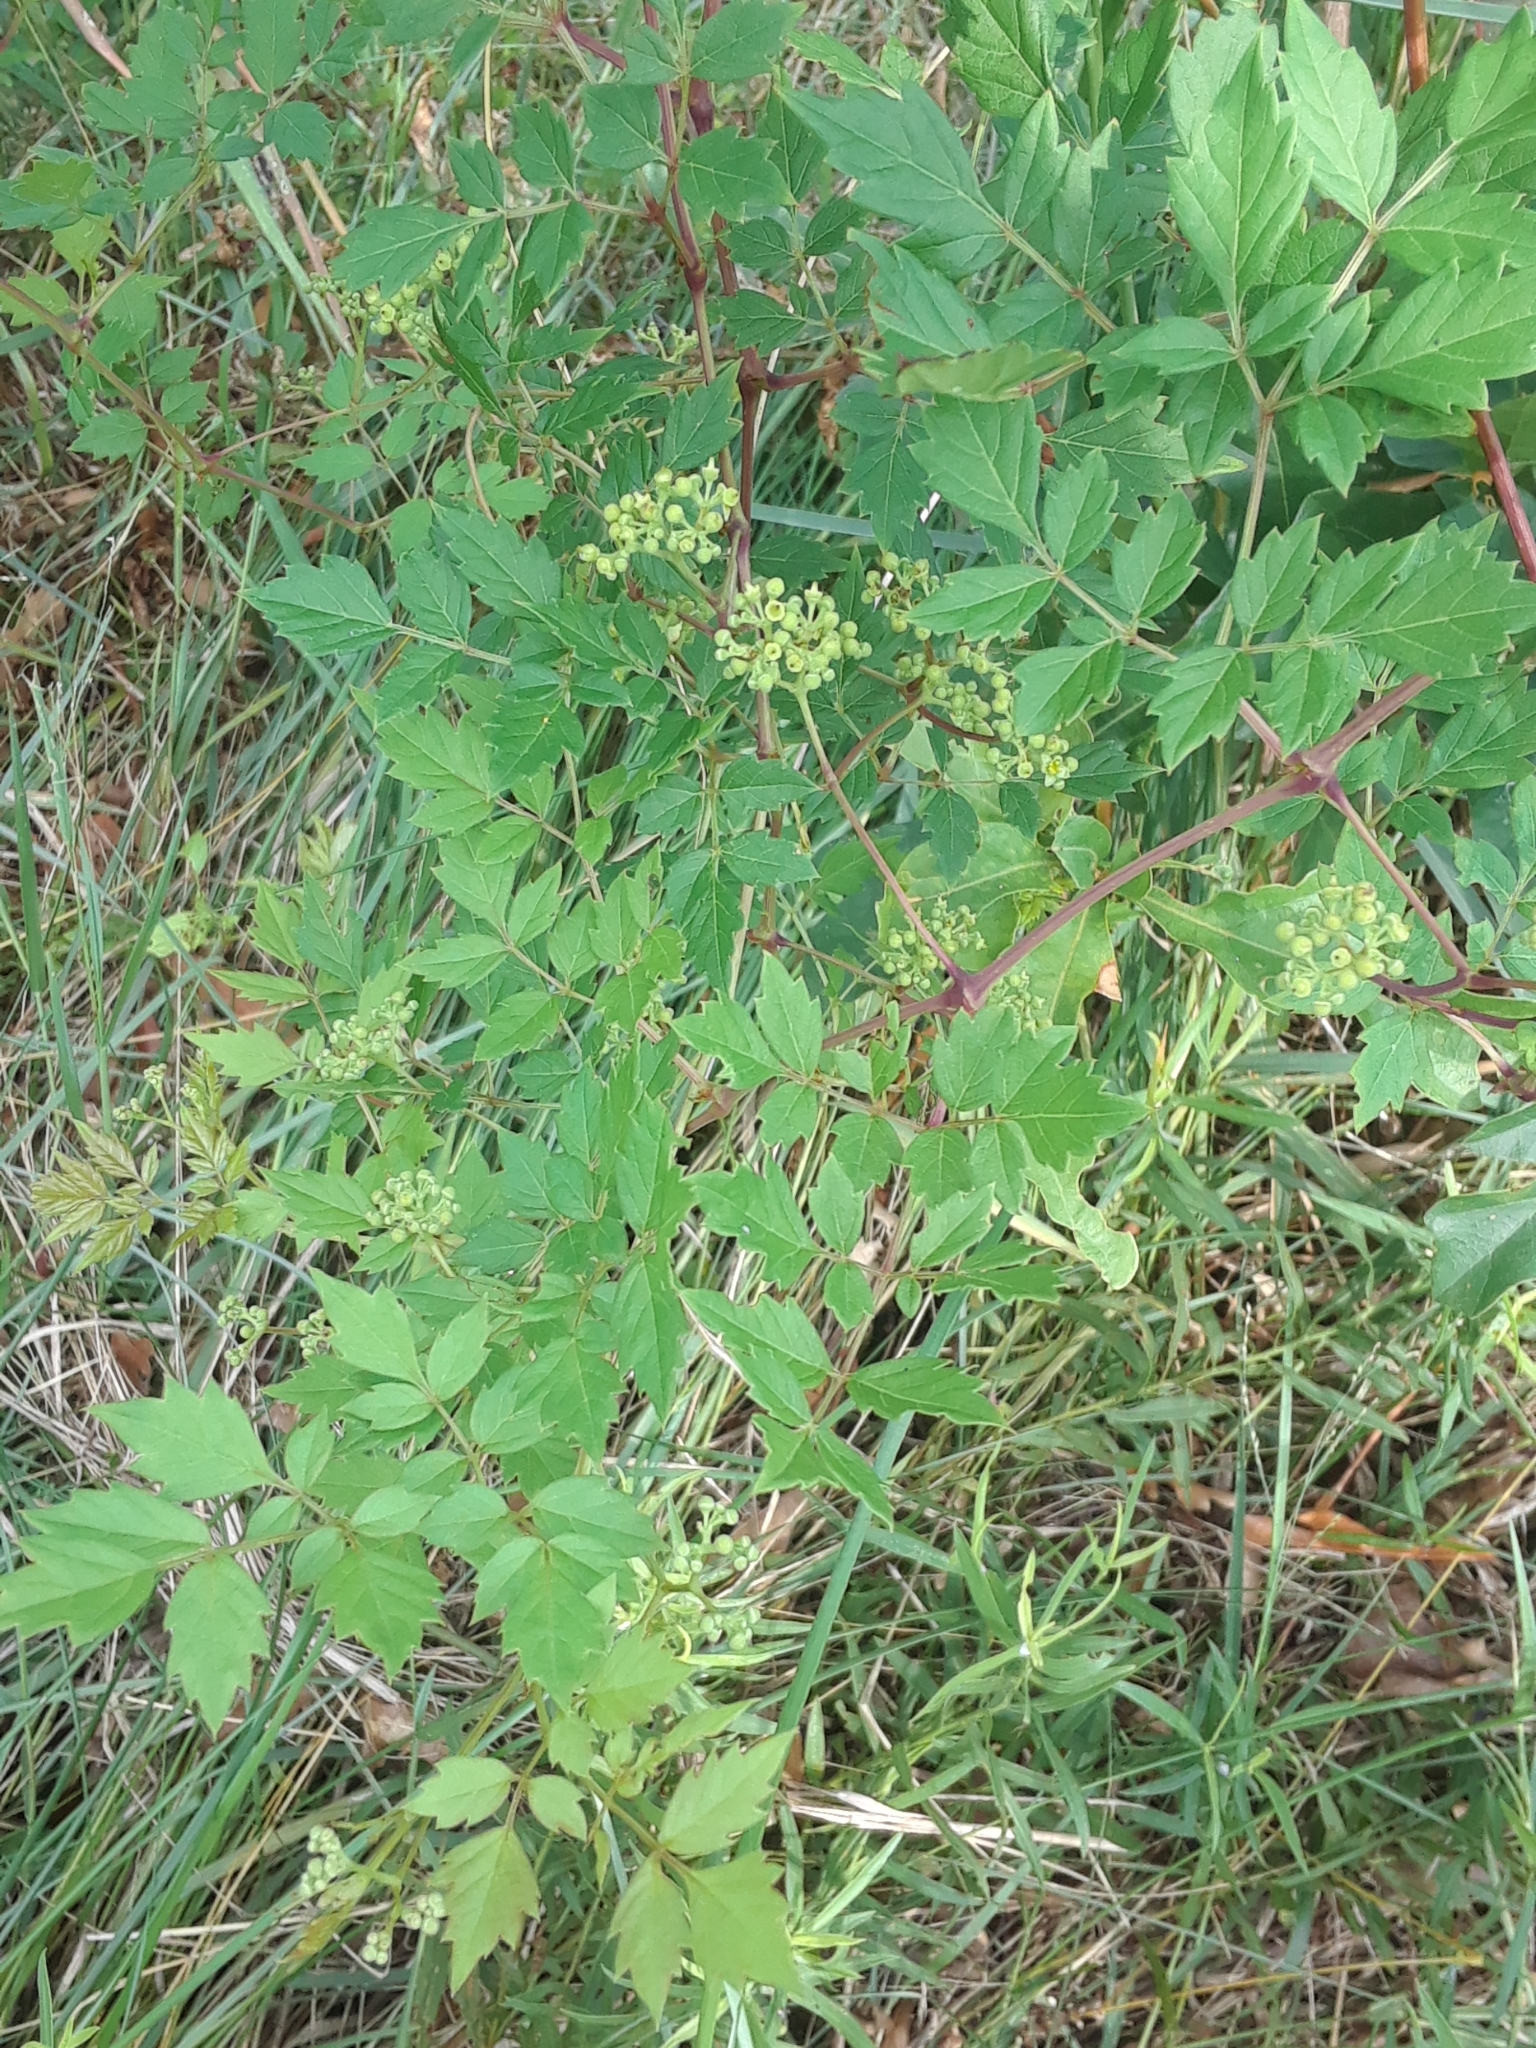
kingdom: Plantae
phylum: Tracheophyta
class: Magnoliopsida
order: Vitales
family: Vitaceae
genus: Nekemias
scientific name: Nekemias arborea
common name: Peppervine
